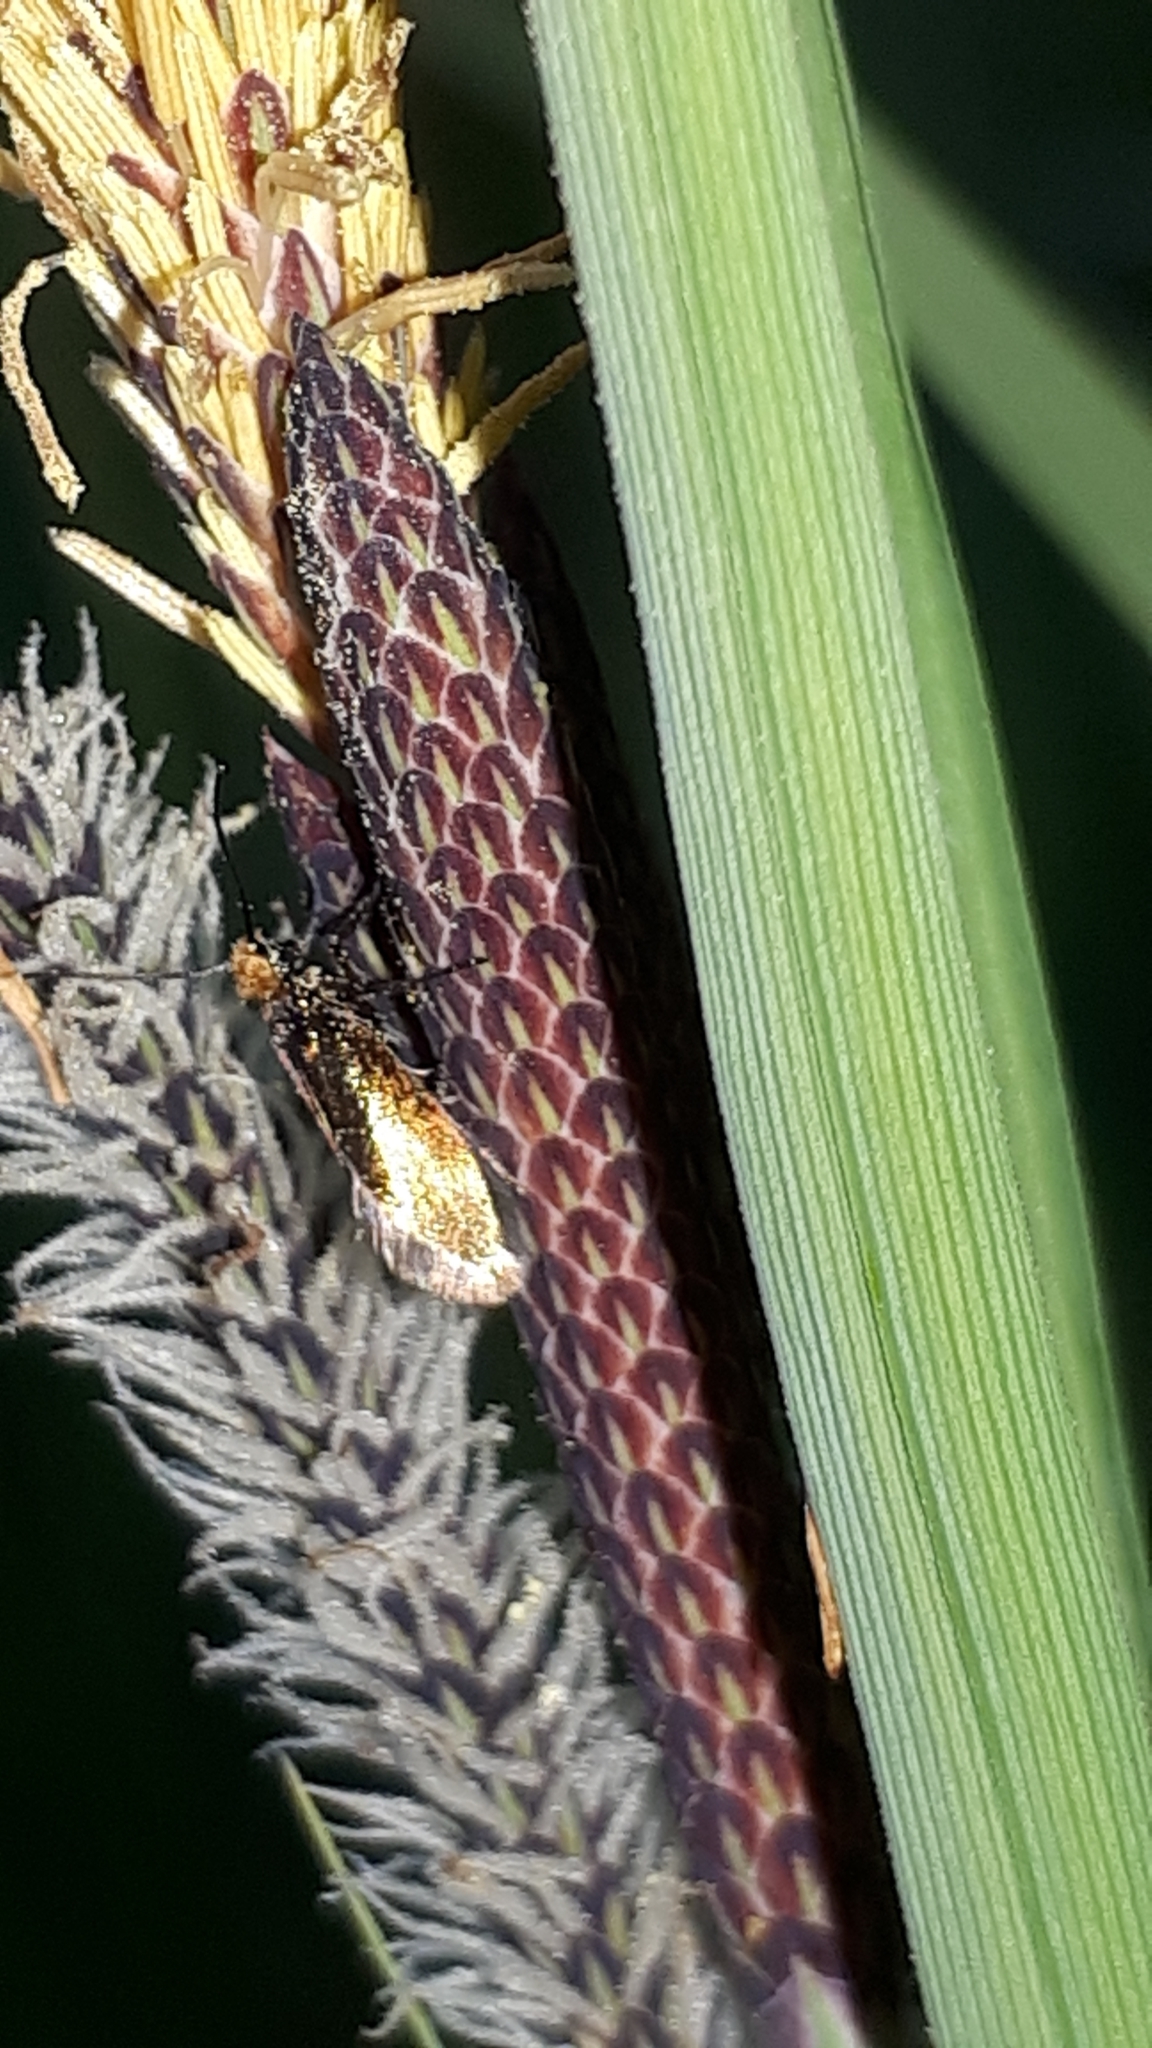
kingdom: Animalia
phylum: Arthropoda
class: Insecta
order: Lepidoptera
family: Micropterigidae
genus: Micropterix
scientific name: Micropterix calthella
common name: Plain gold
